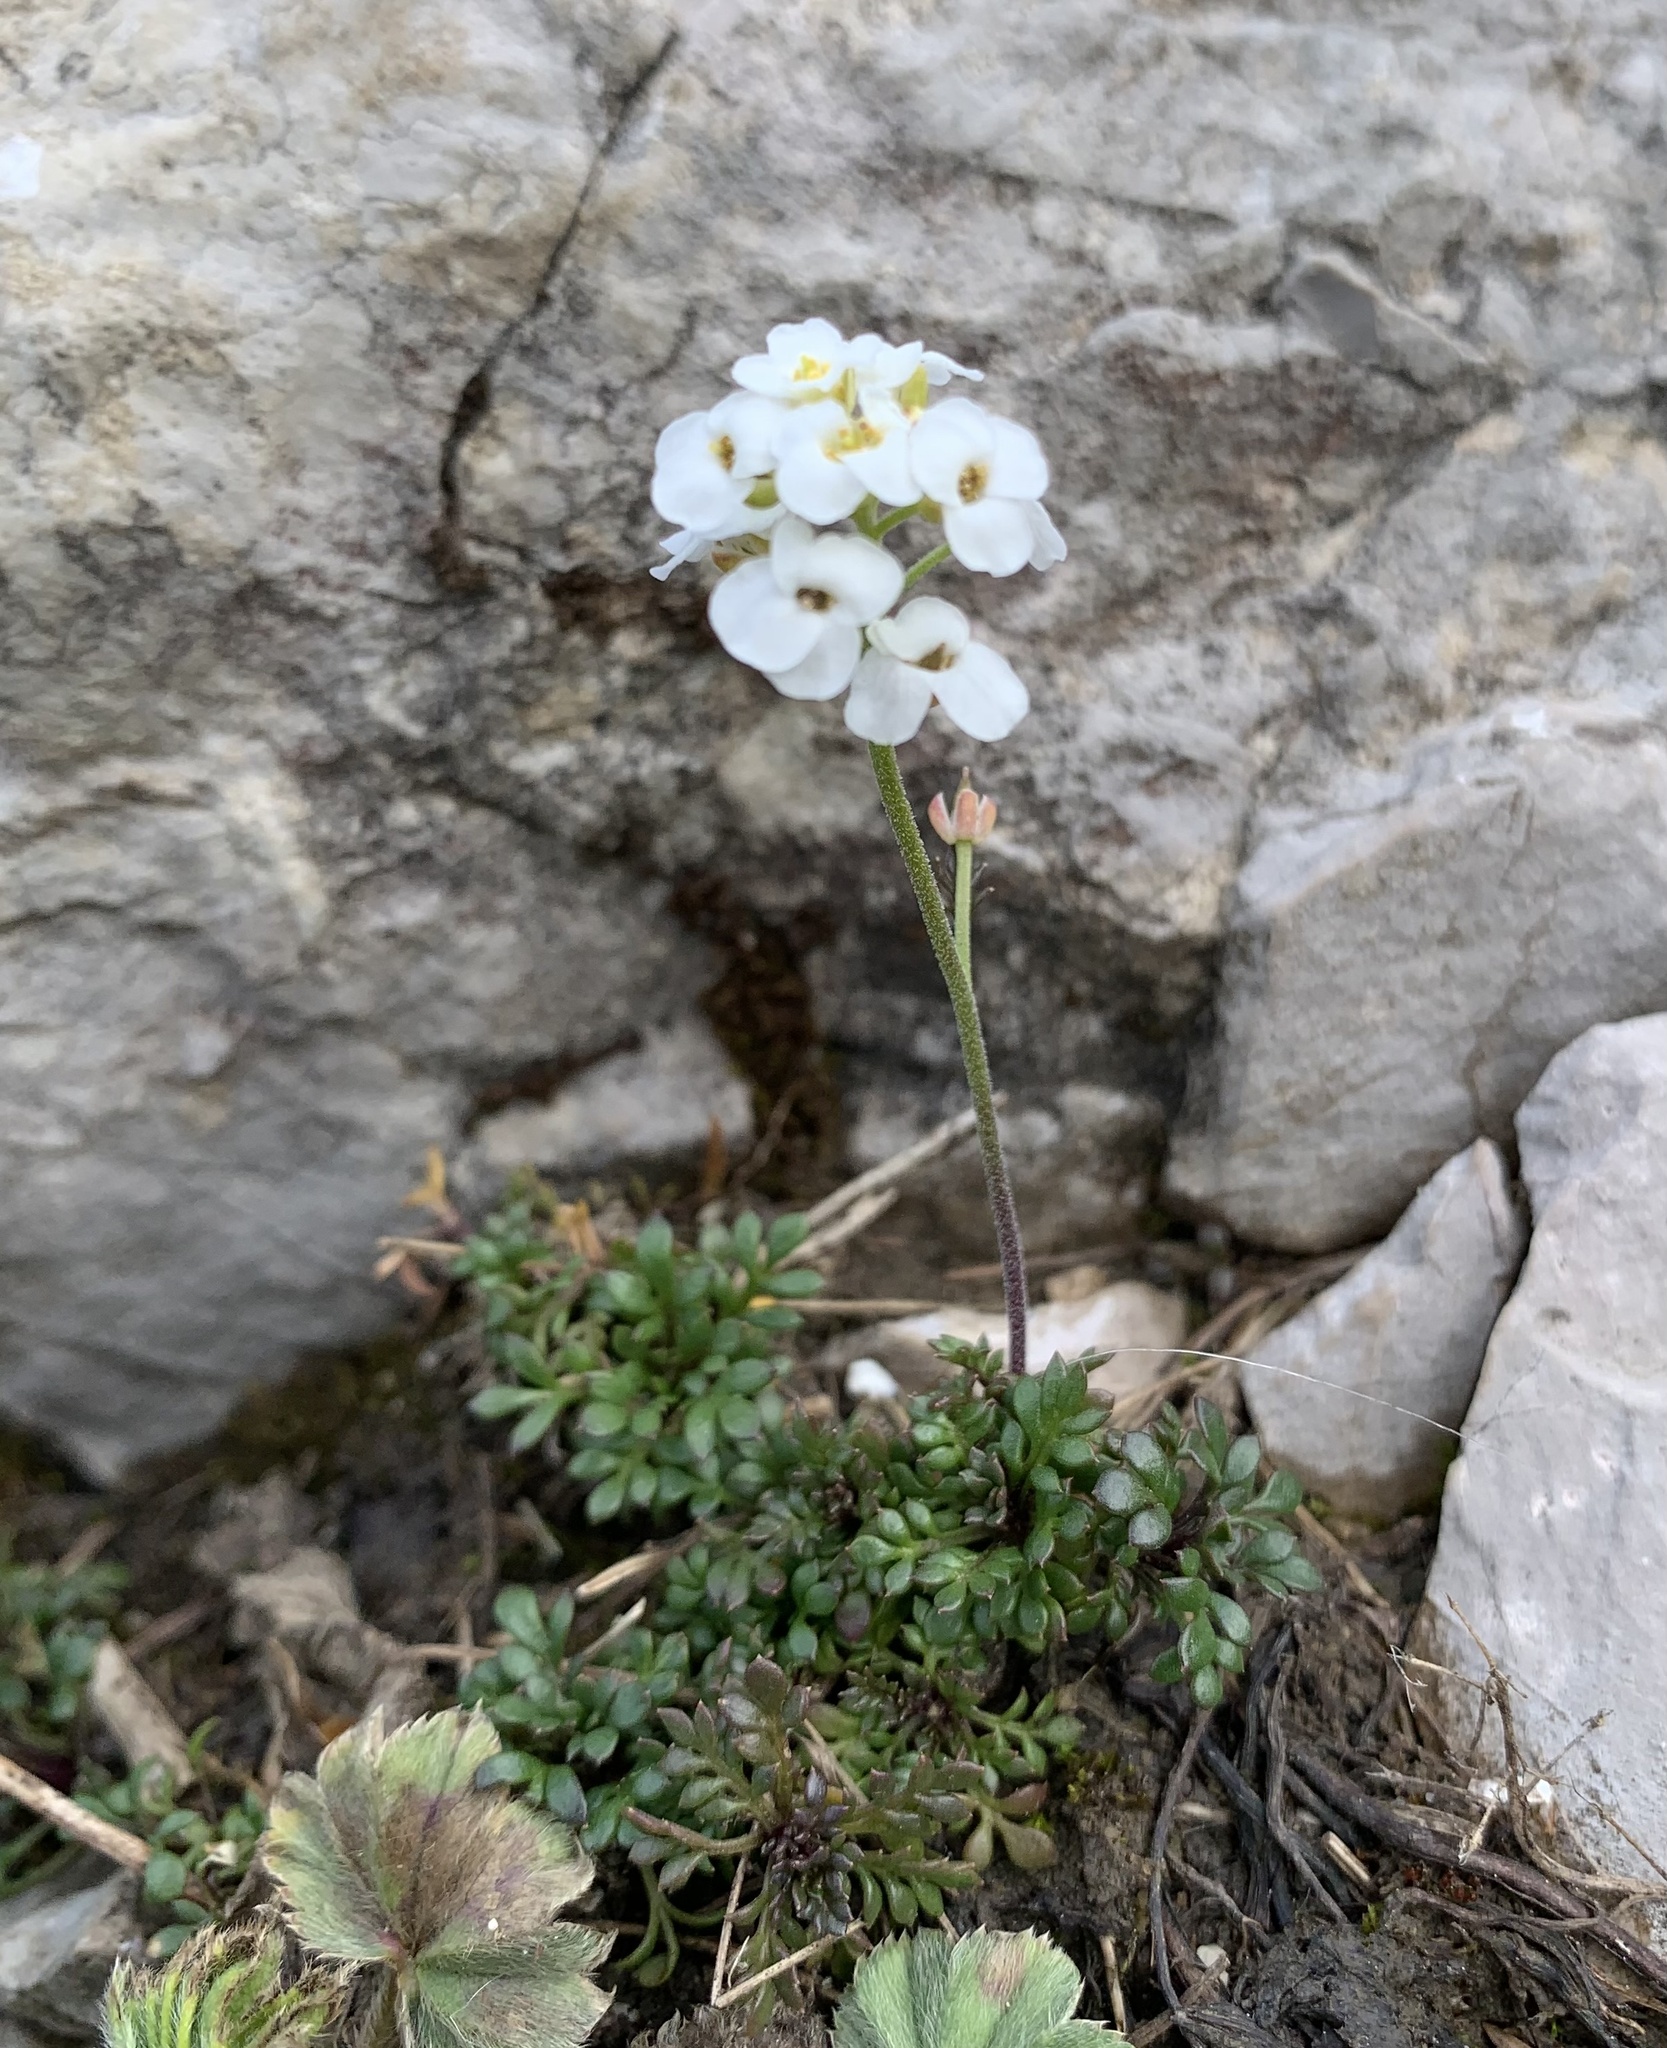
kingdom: Plantae
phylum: Tracheophyta
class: Magnoliopsida
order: Brassicales
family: Brassicaceae
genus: Hornungia
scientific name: Hornungia alpina
